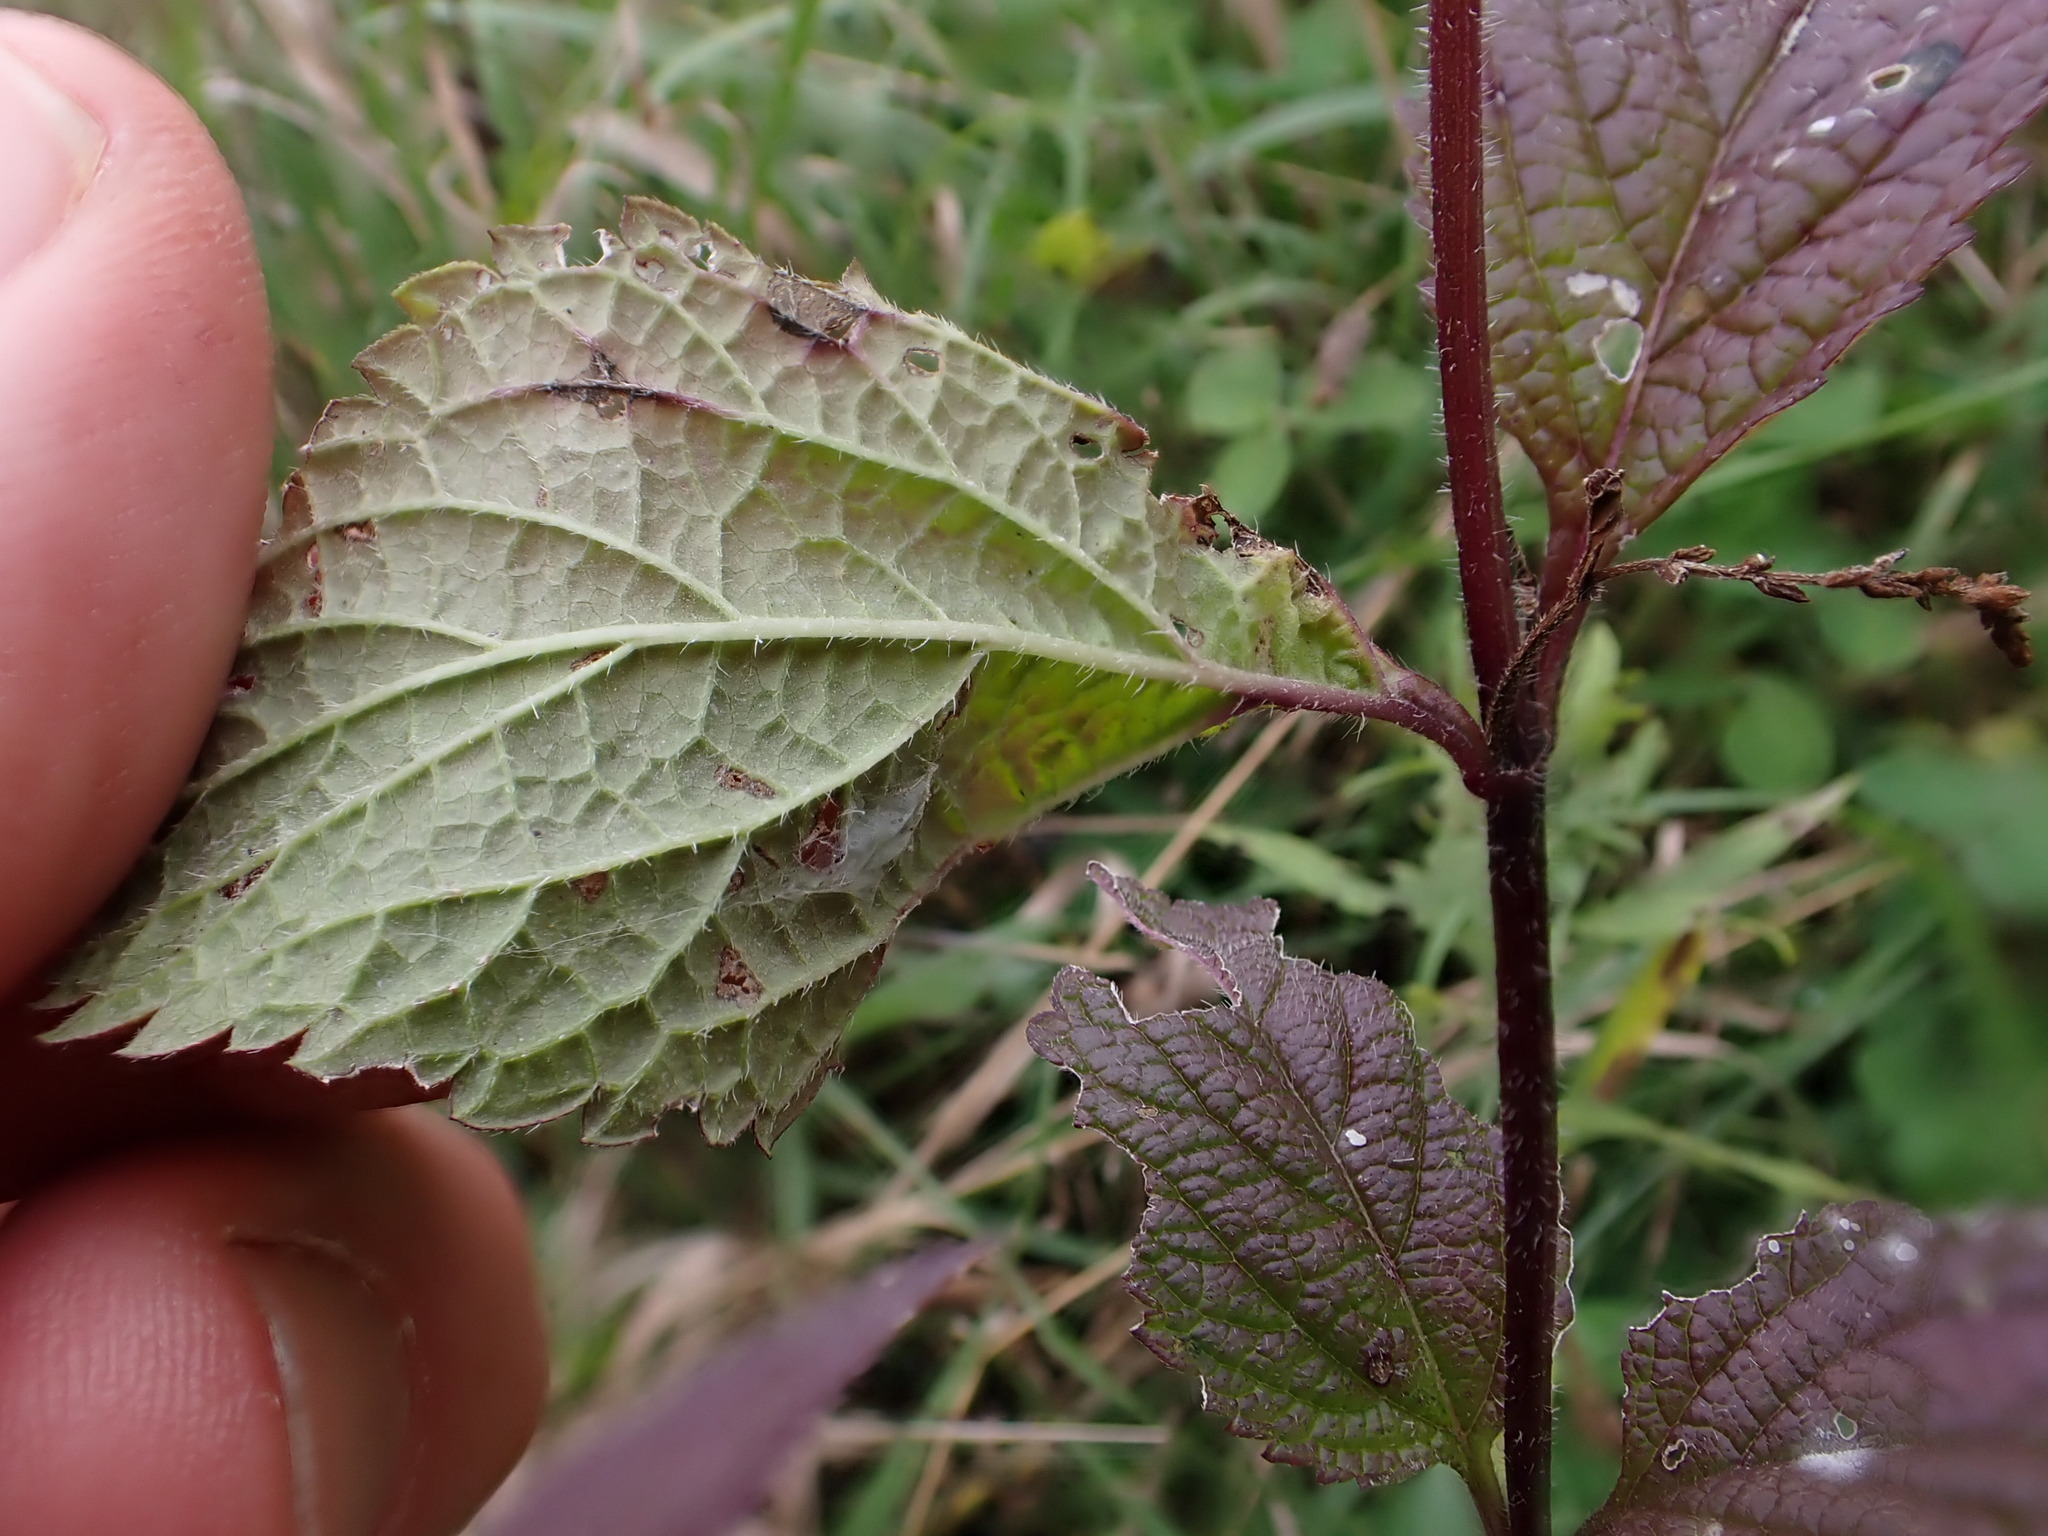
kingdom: Plantae
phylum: Tracheophyta
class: Magnoliopsida
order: Lamiales
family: Verbenaceae
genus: Verbena
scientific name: Verbena urticifolia
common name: Nettle-leaved vervain
